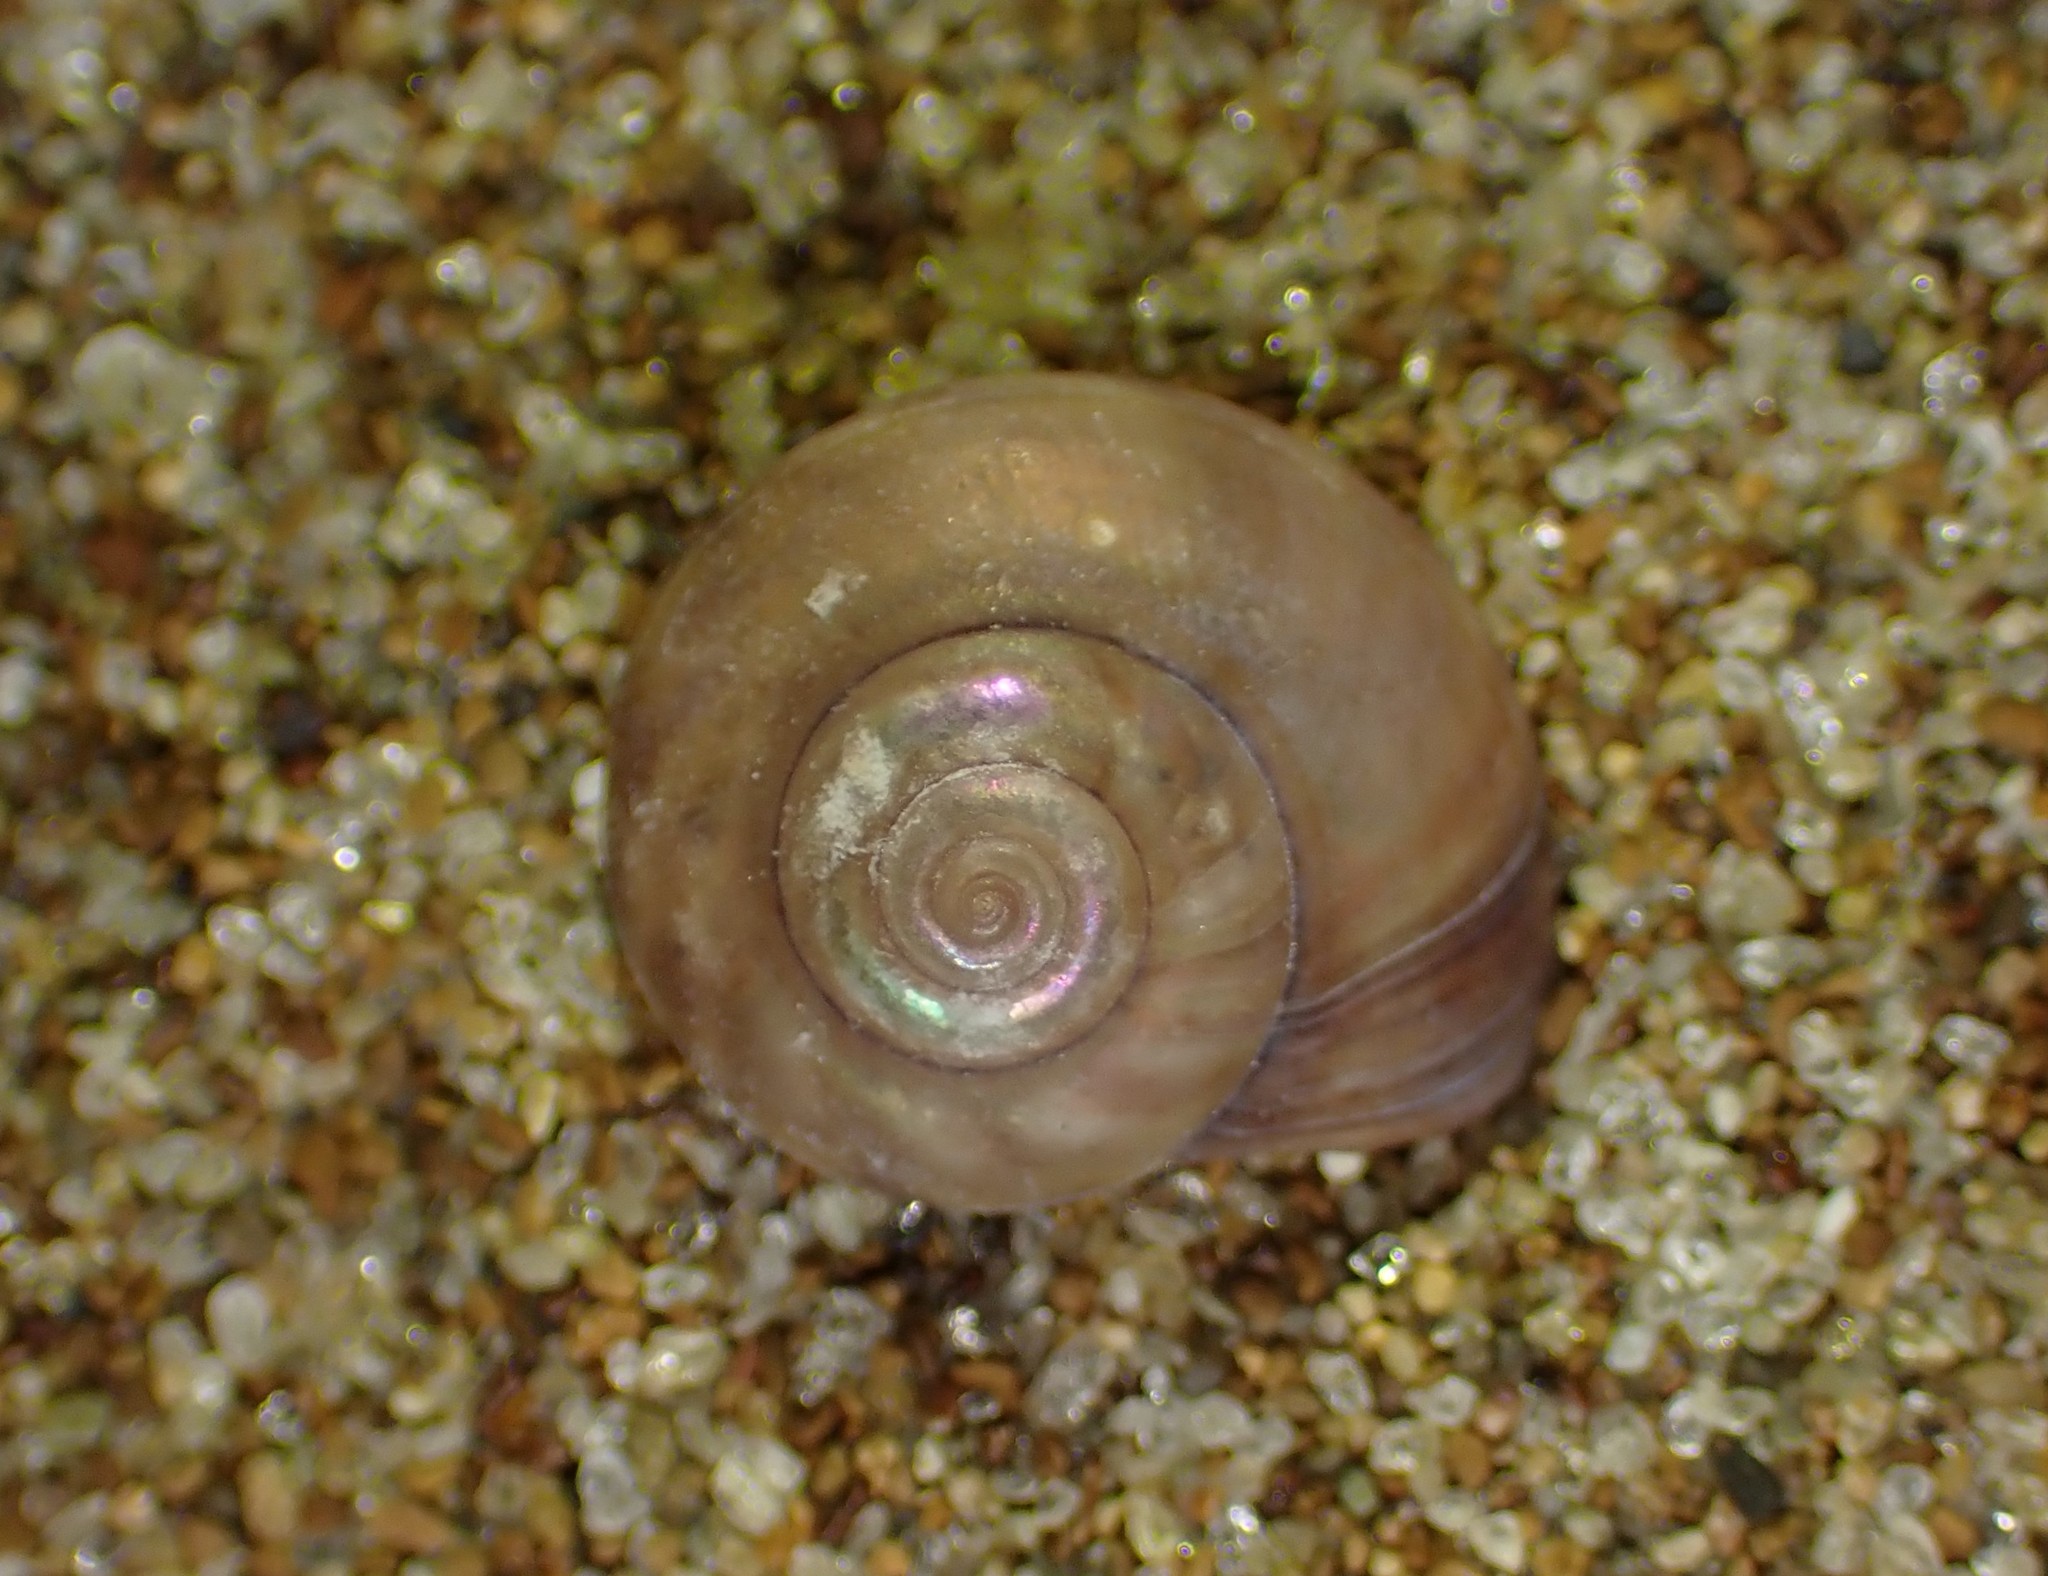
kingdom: Animalia
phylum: Mollusca
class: Gastropoda
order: Trochida
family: Trochidae
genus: Zethalia
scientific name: Zethalia zelandica
